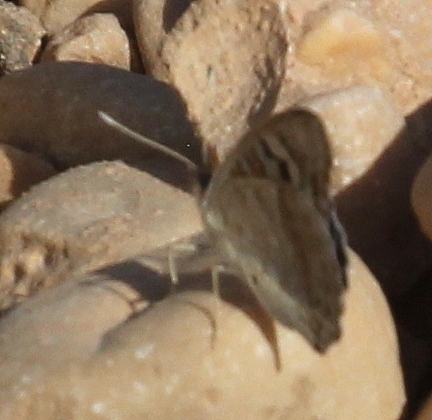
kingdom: Animalia
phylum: Arthropoda
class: Insecta
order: Lepidoptera
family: Nymphalidae
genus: Junonia
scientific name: Junonia orithya
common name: Blue pansy
